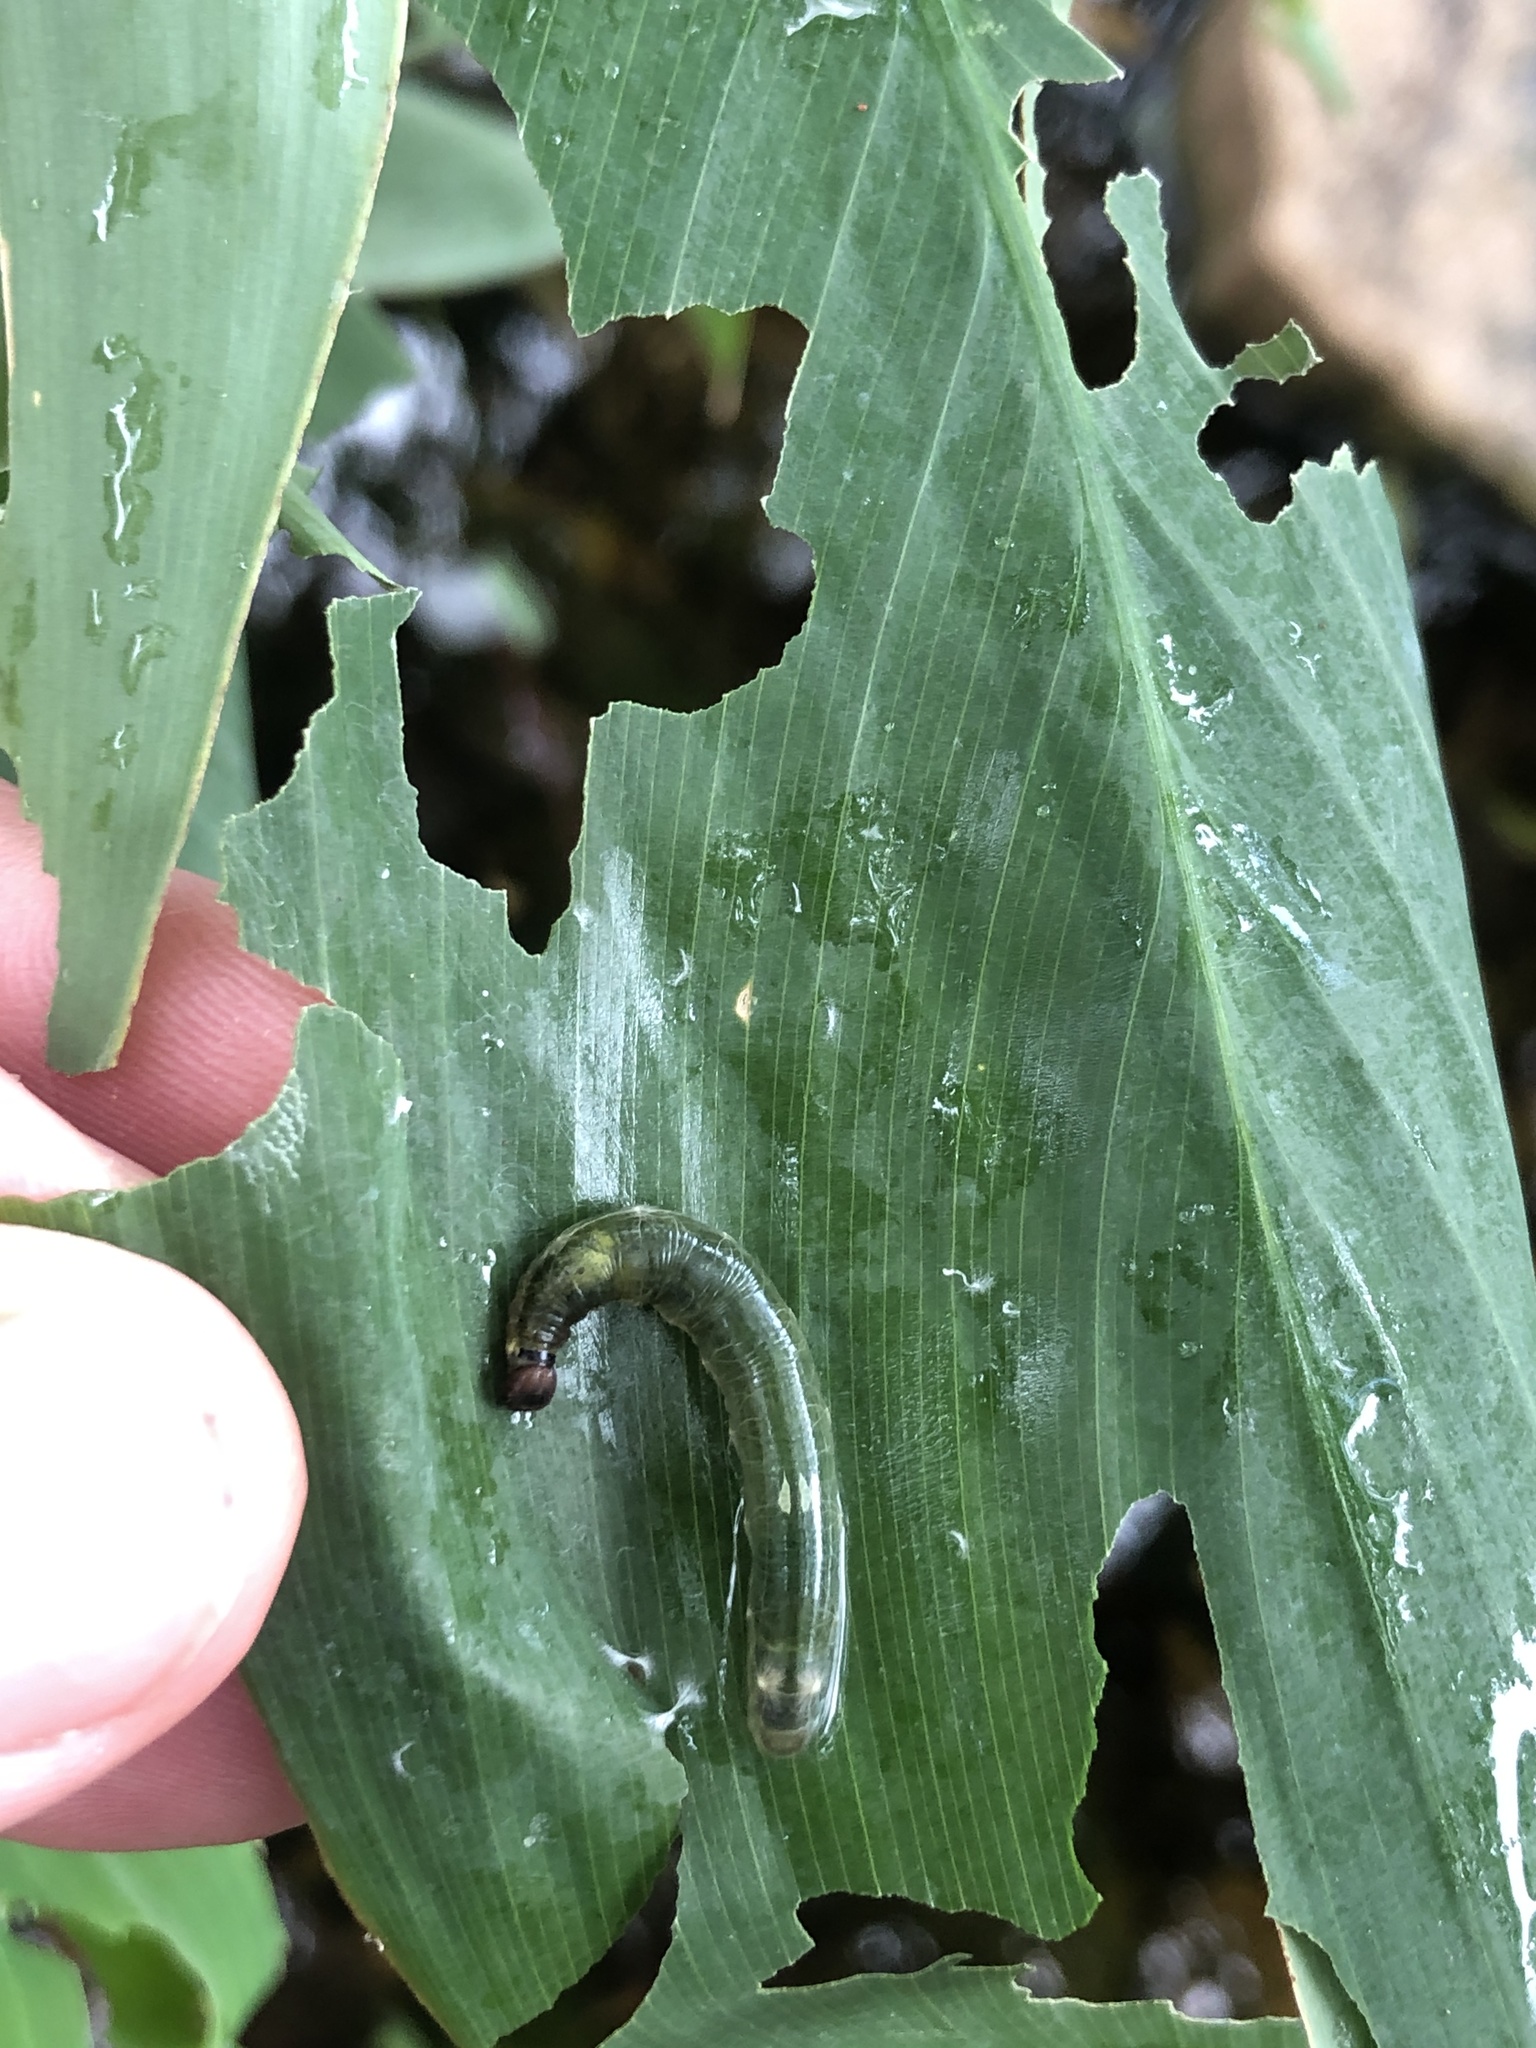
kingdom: Animalia
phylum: Arthropoda
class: Insecta
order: Lepidoptera
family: Hesperiidae
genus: Calpodes
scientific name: Calpodes ethlius
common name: Brazilian skipper
